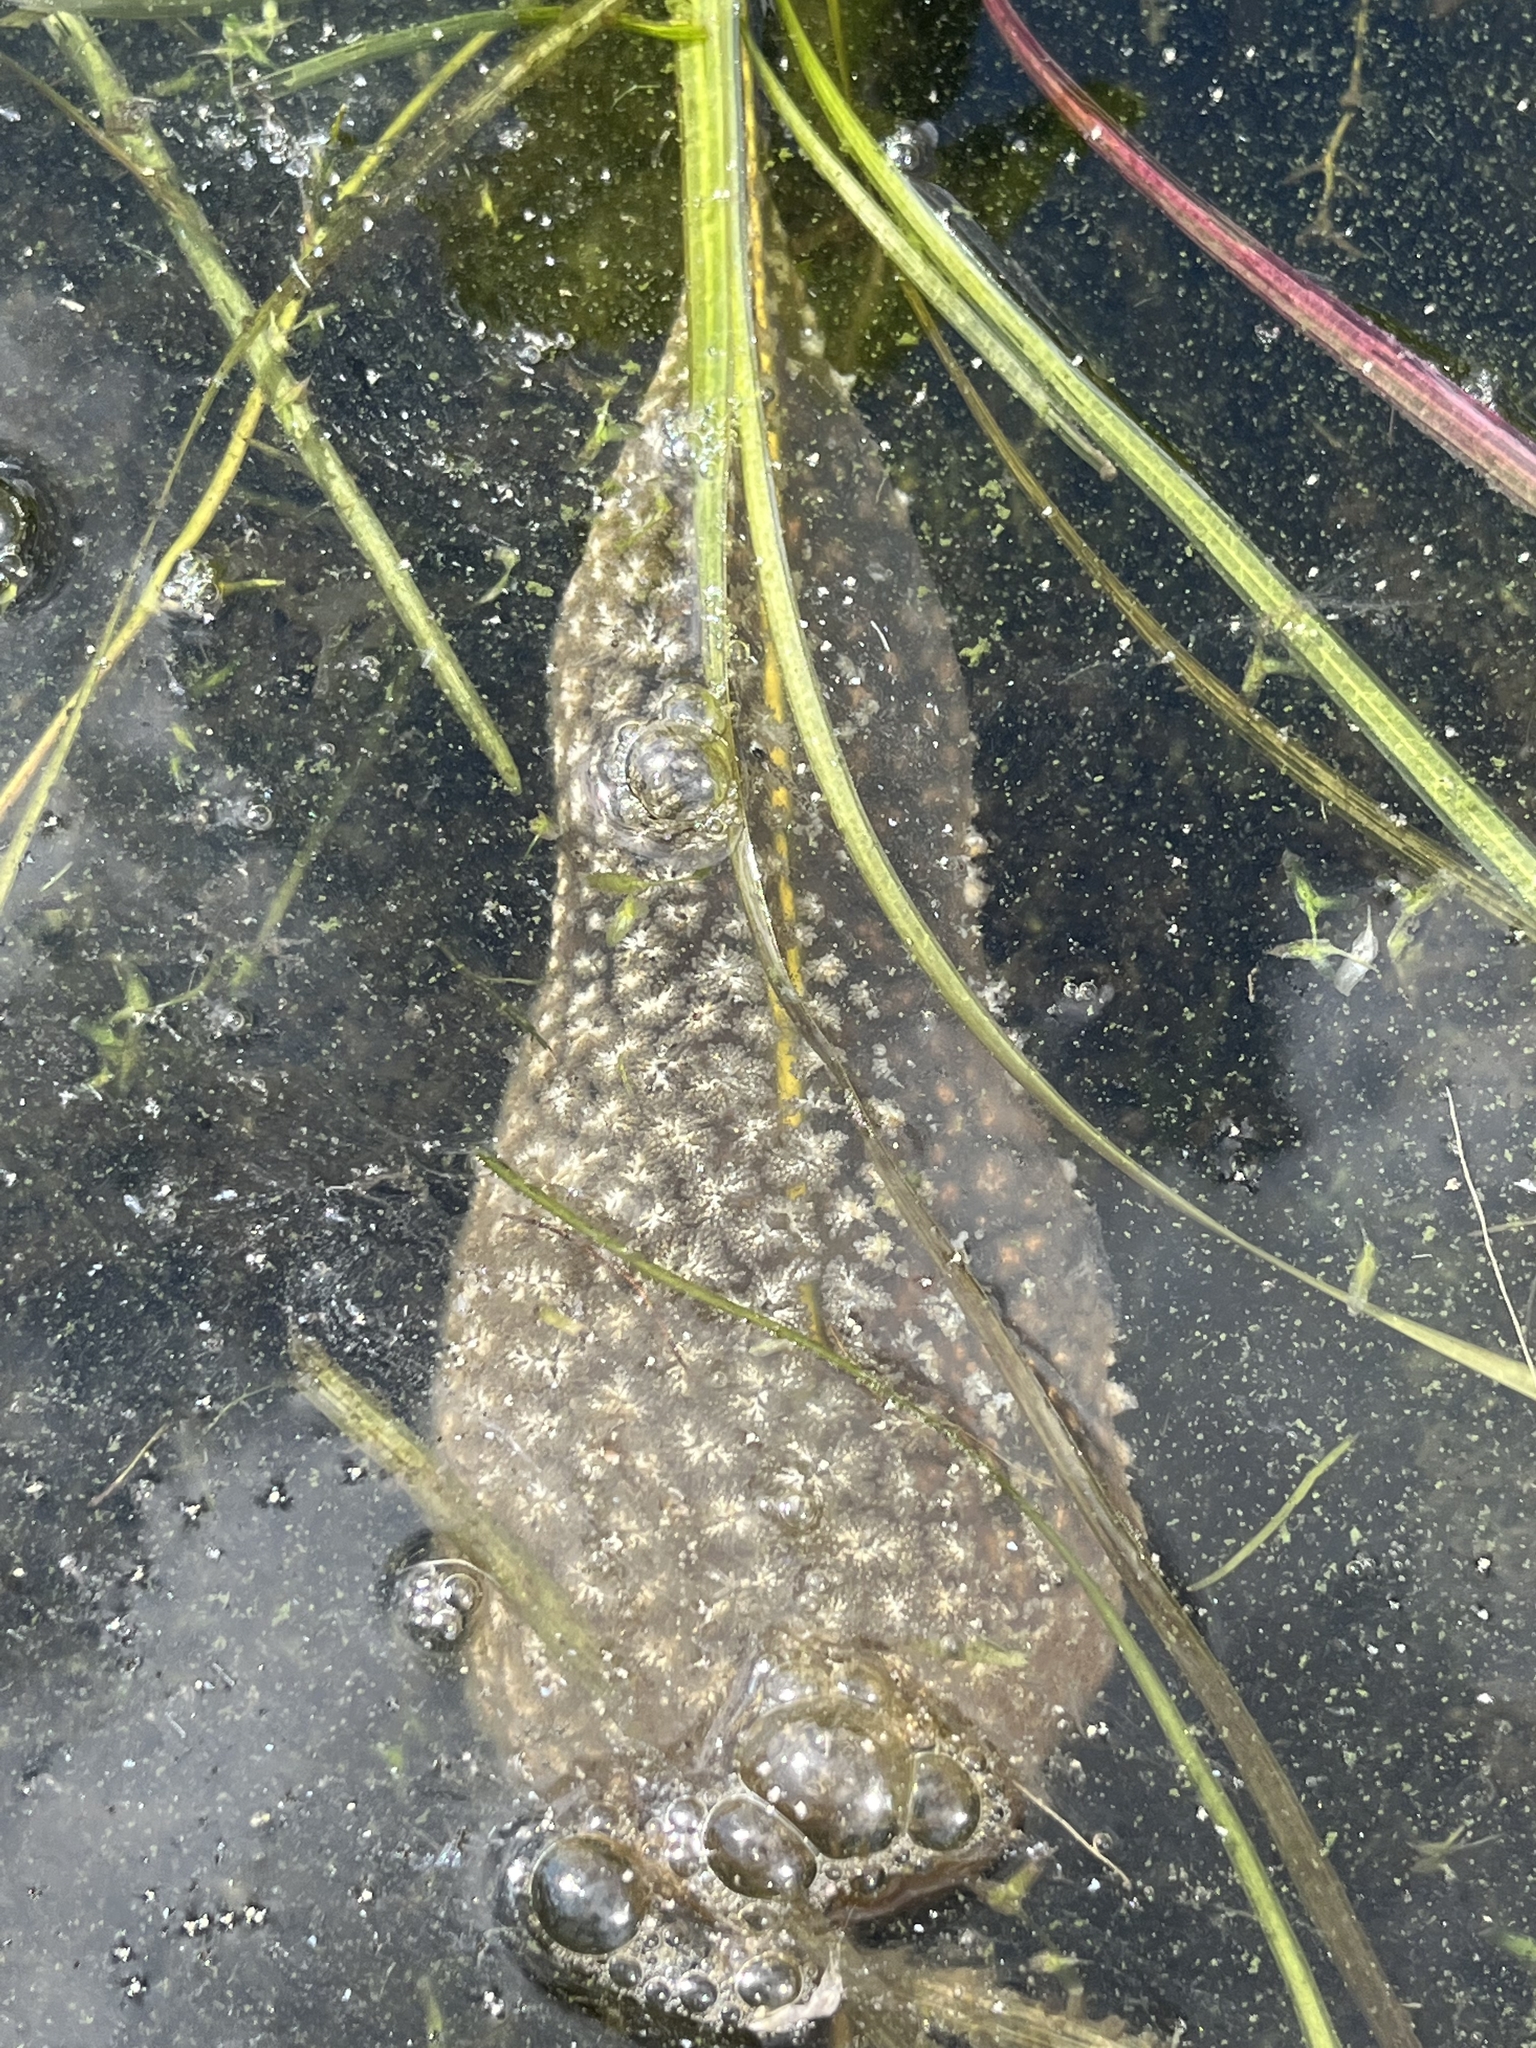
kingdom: Animalia
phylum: Bryozoa
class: Phylactolaemata
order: Plumatellida
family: Pectinatellidae
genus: Pectinatella
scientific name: Pectinatella magnifica
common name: Magnificent bryozoan
